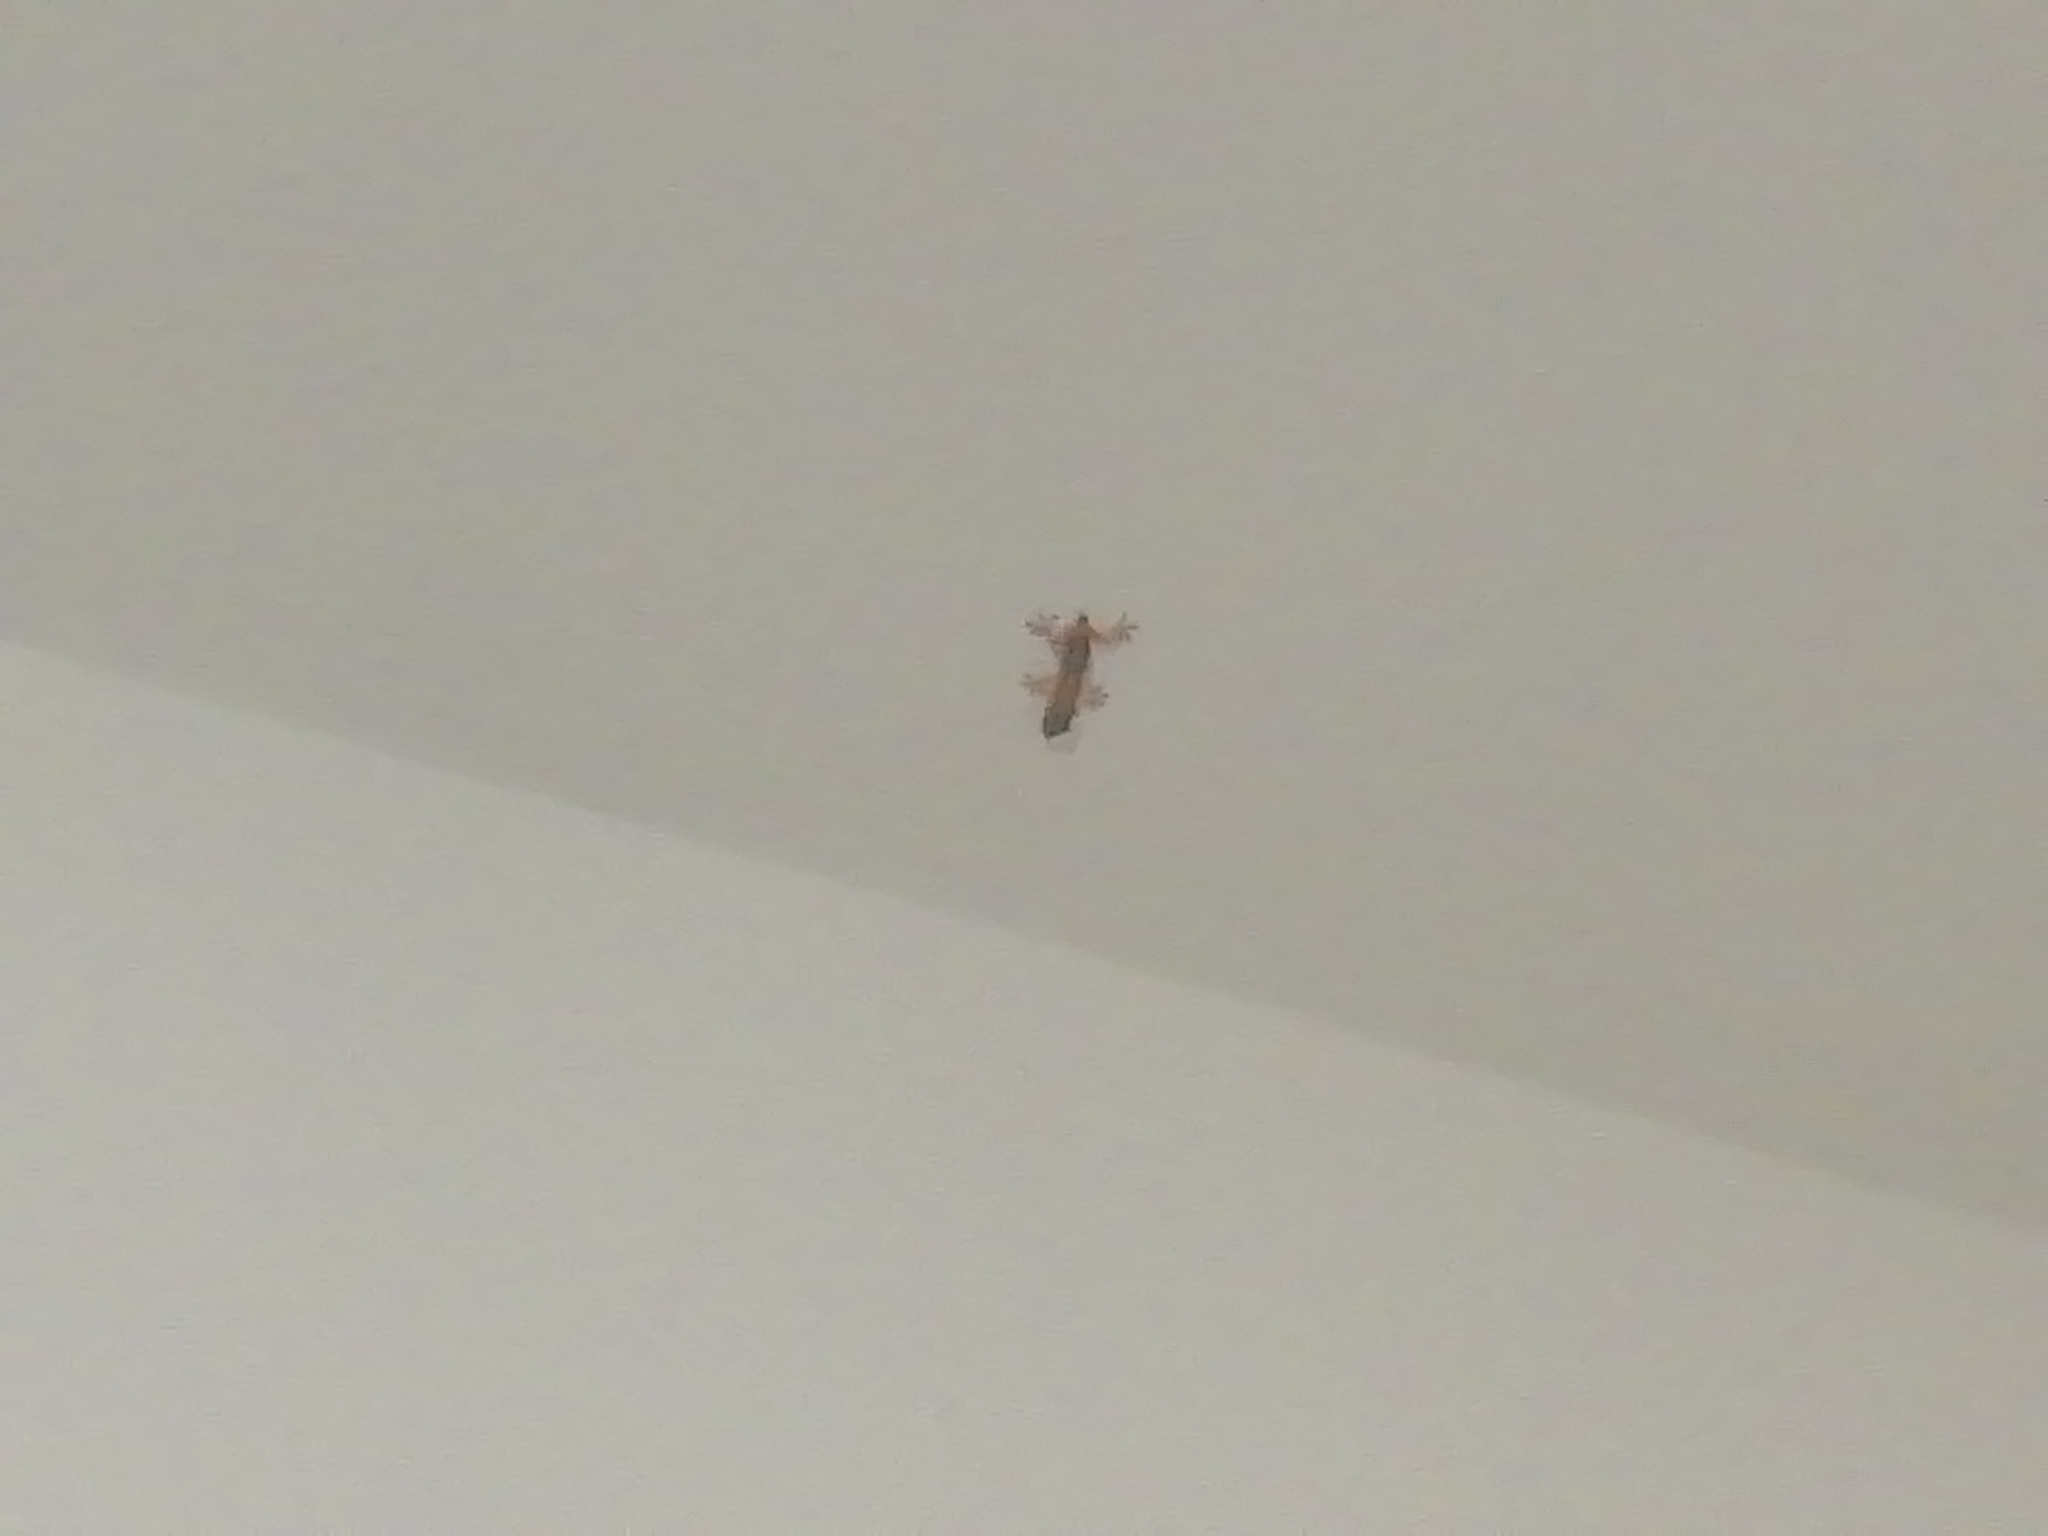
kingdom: Animalia
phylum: Chordata
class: Squamata
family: Phyllodactylidae
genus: Tarentola
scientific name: Tarentola mauritanica
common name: Moorish gecko
